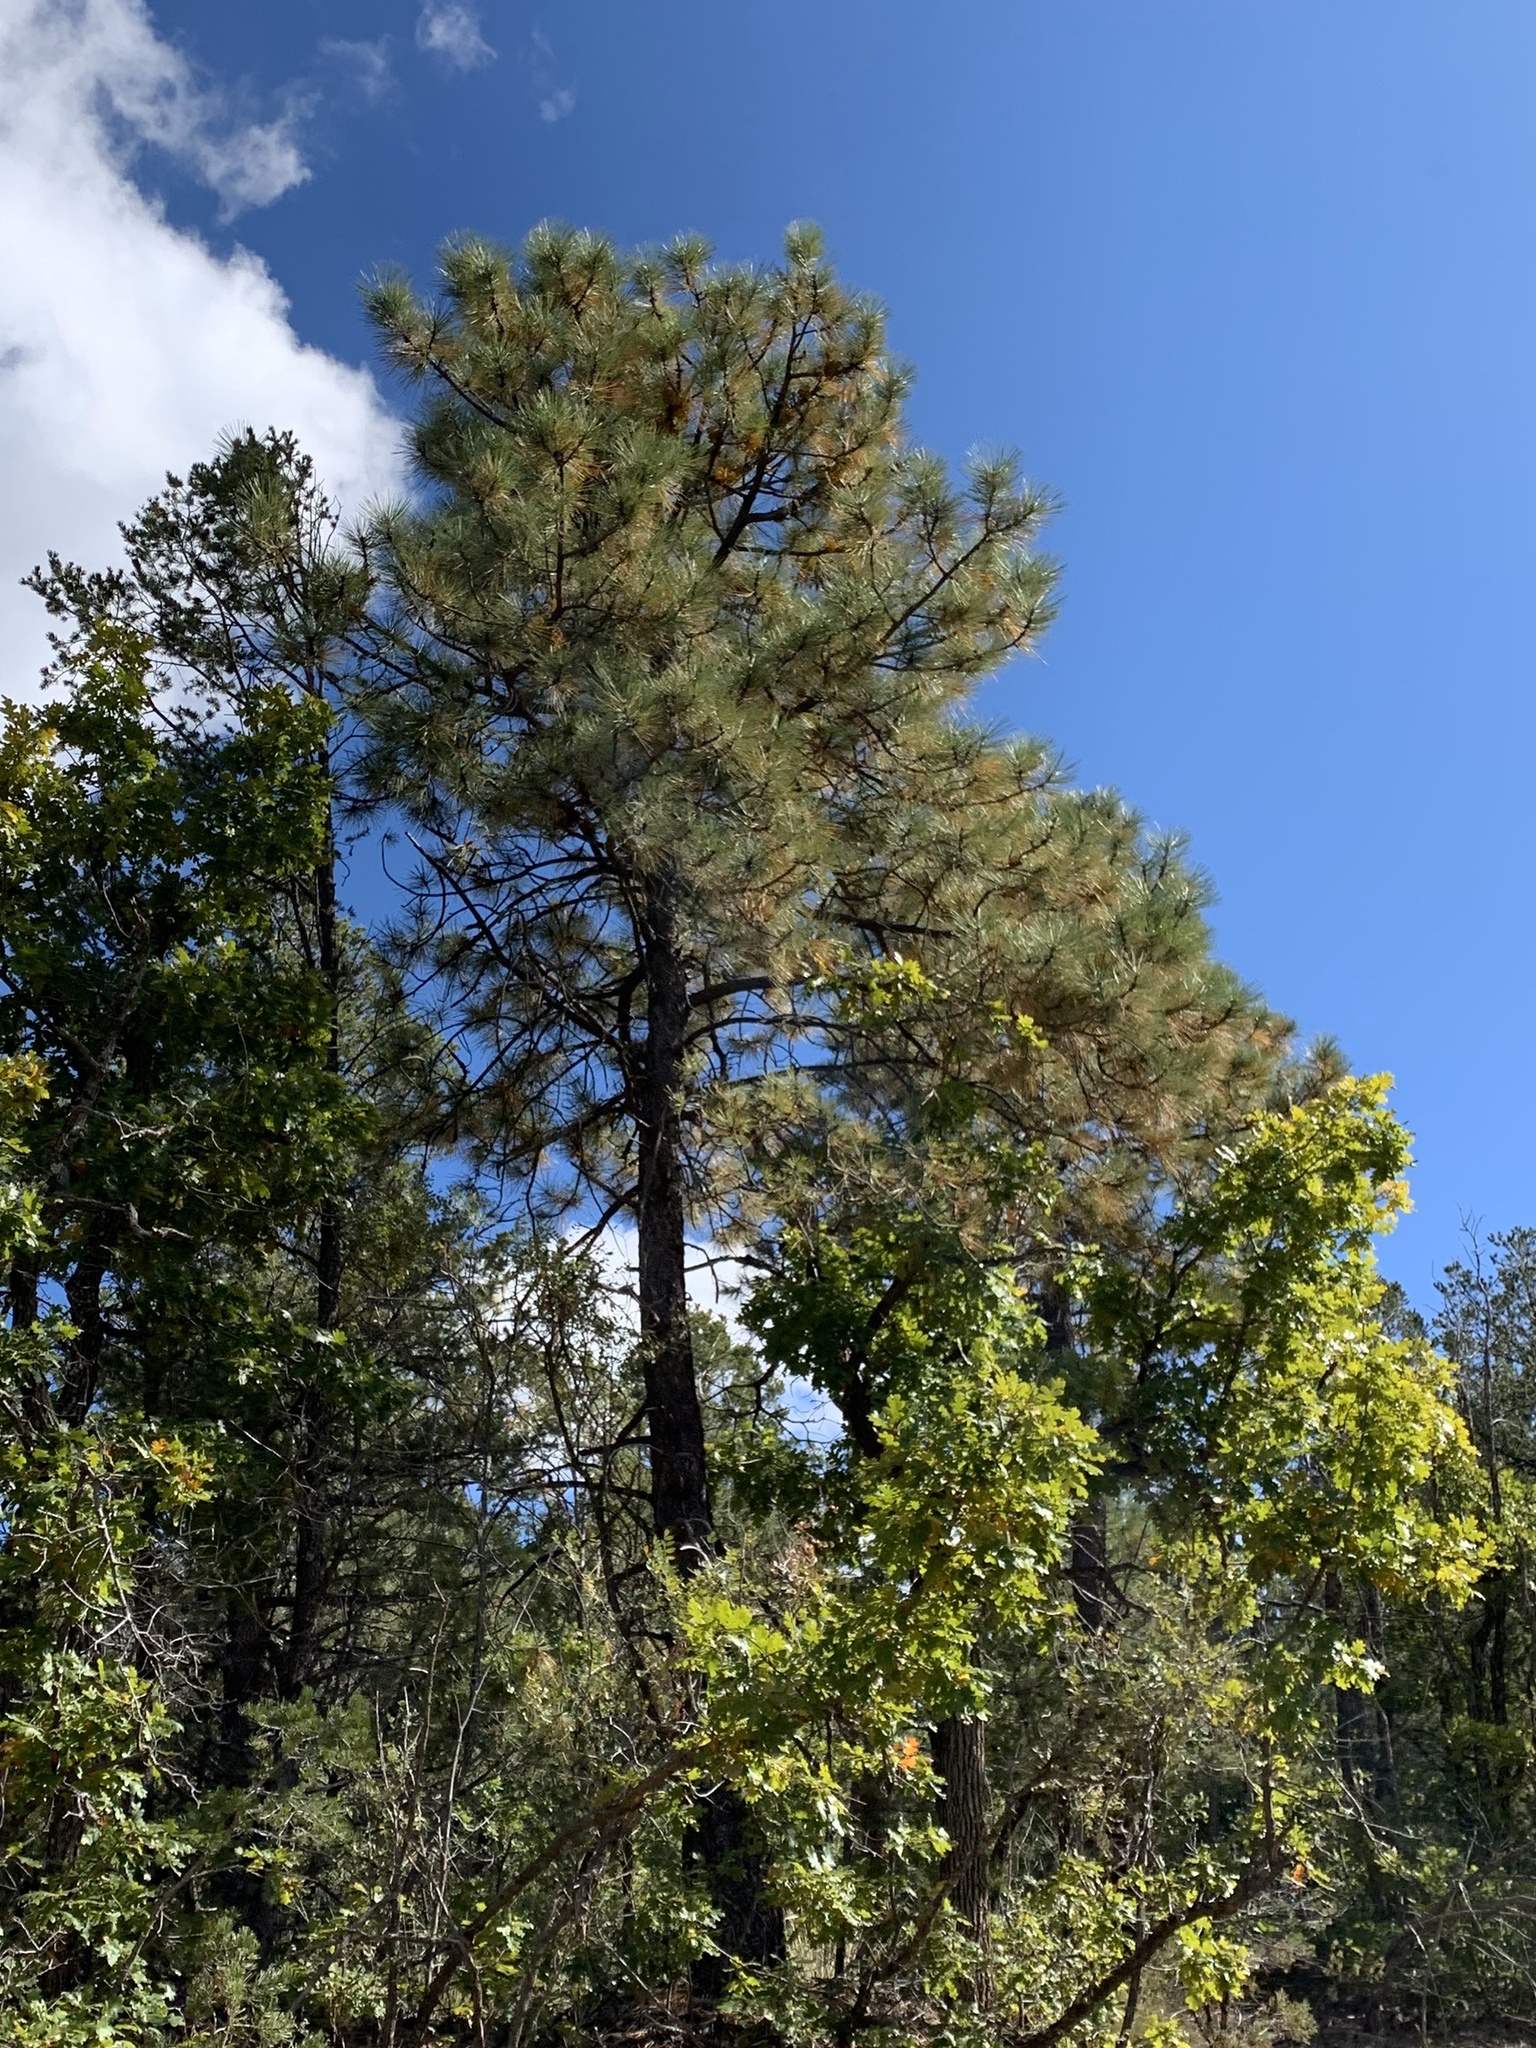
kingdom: Plantae
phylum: Tracheophyta
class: Pinopsida
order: Pinales
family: Pinaceae
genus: Pinus
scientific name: Pinus ponderosa
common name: Western yellow-pine
